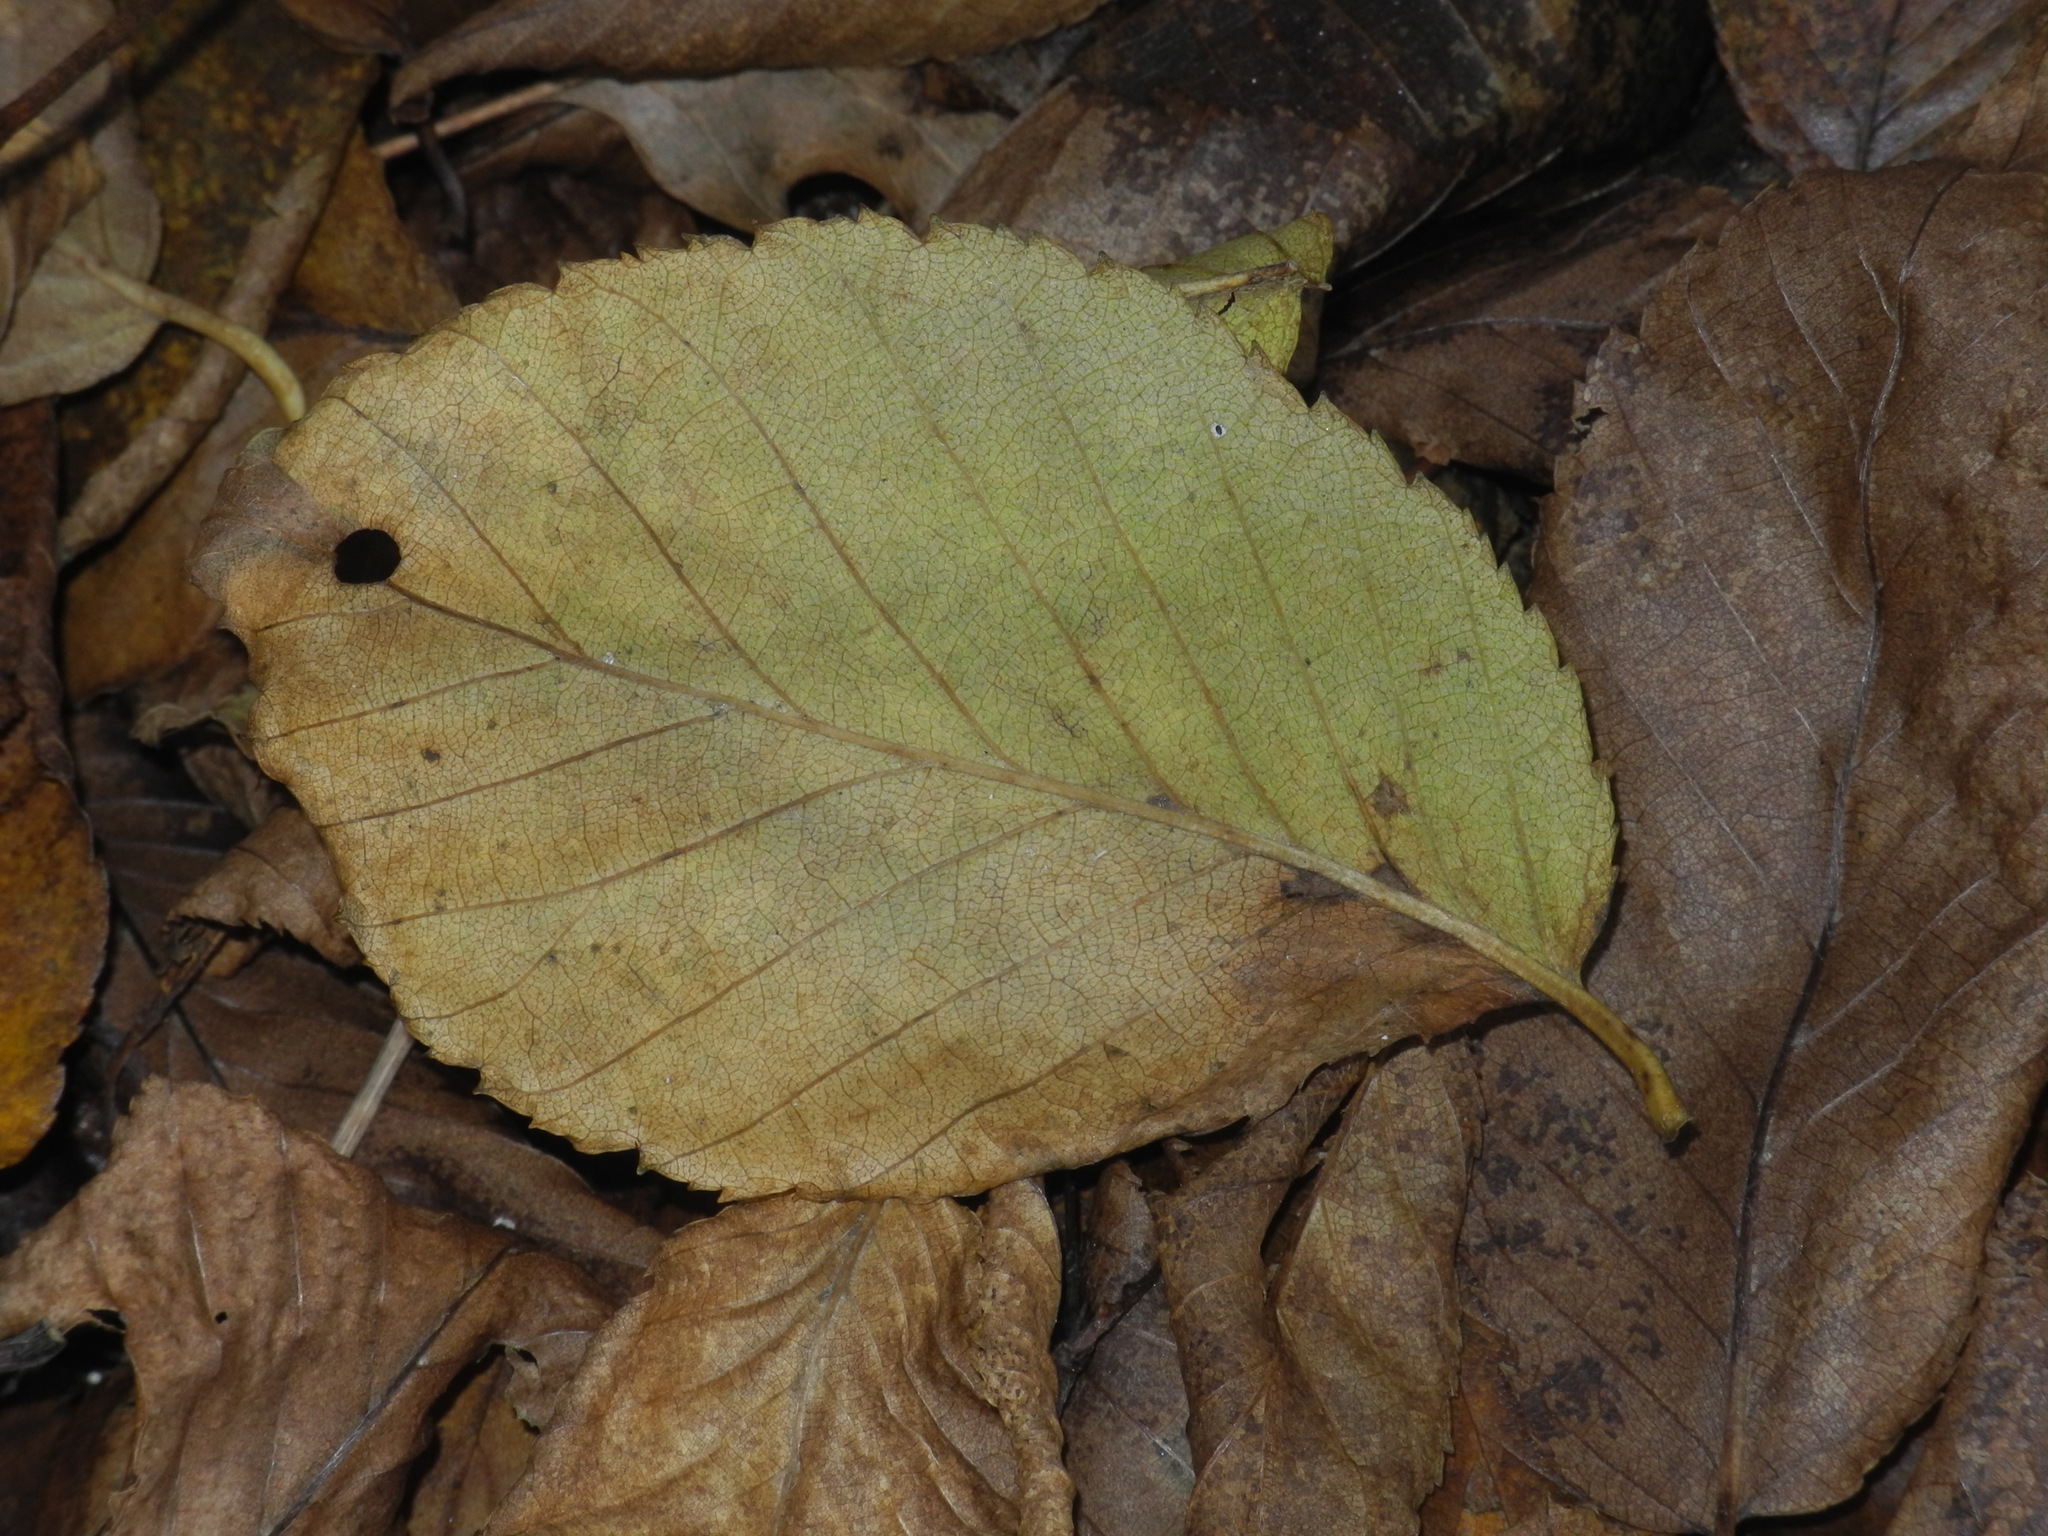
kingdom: Plantae
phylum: Tracheophyta
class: Magnoliopsida
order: Fagales
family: Betulaceae
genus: Betula
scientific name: Betula lenta
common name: Black birch
